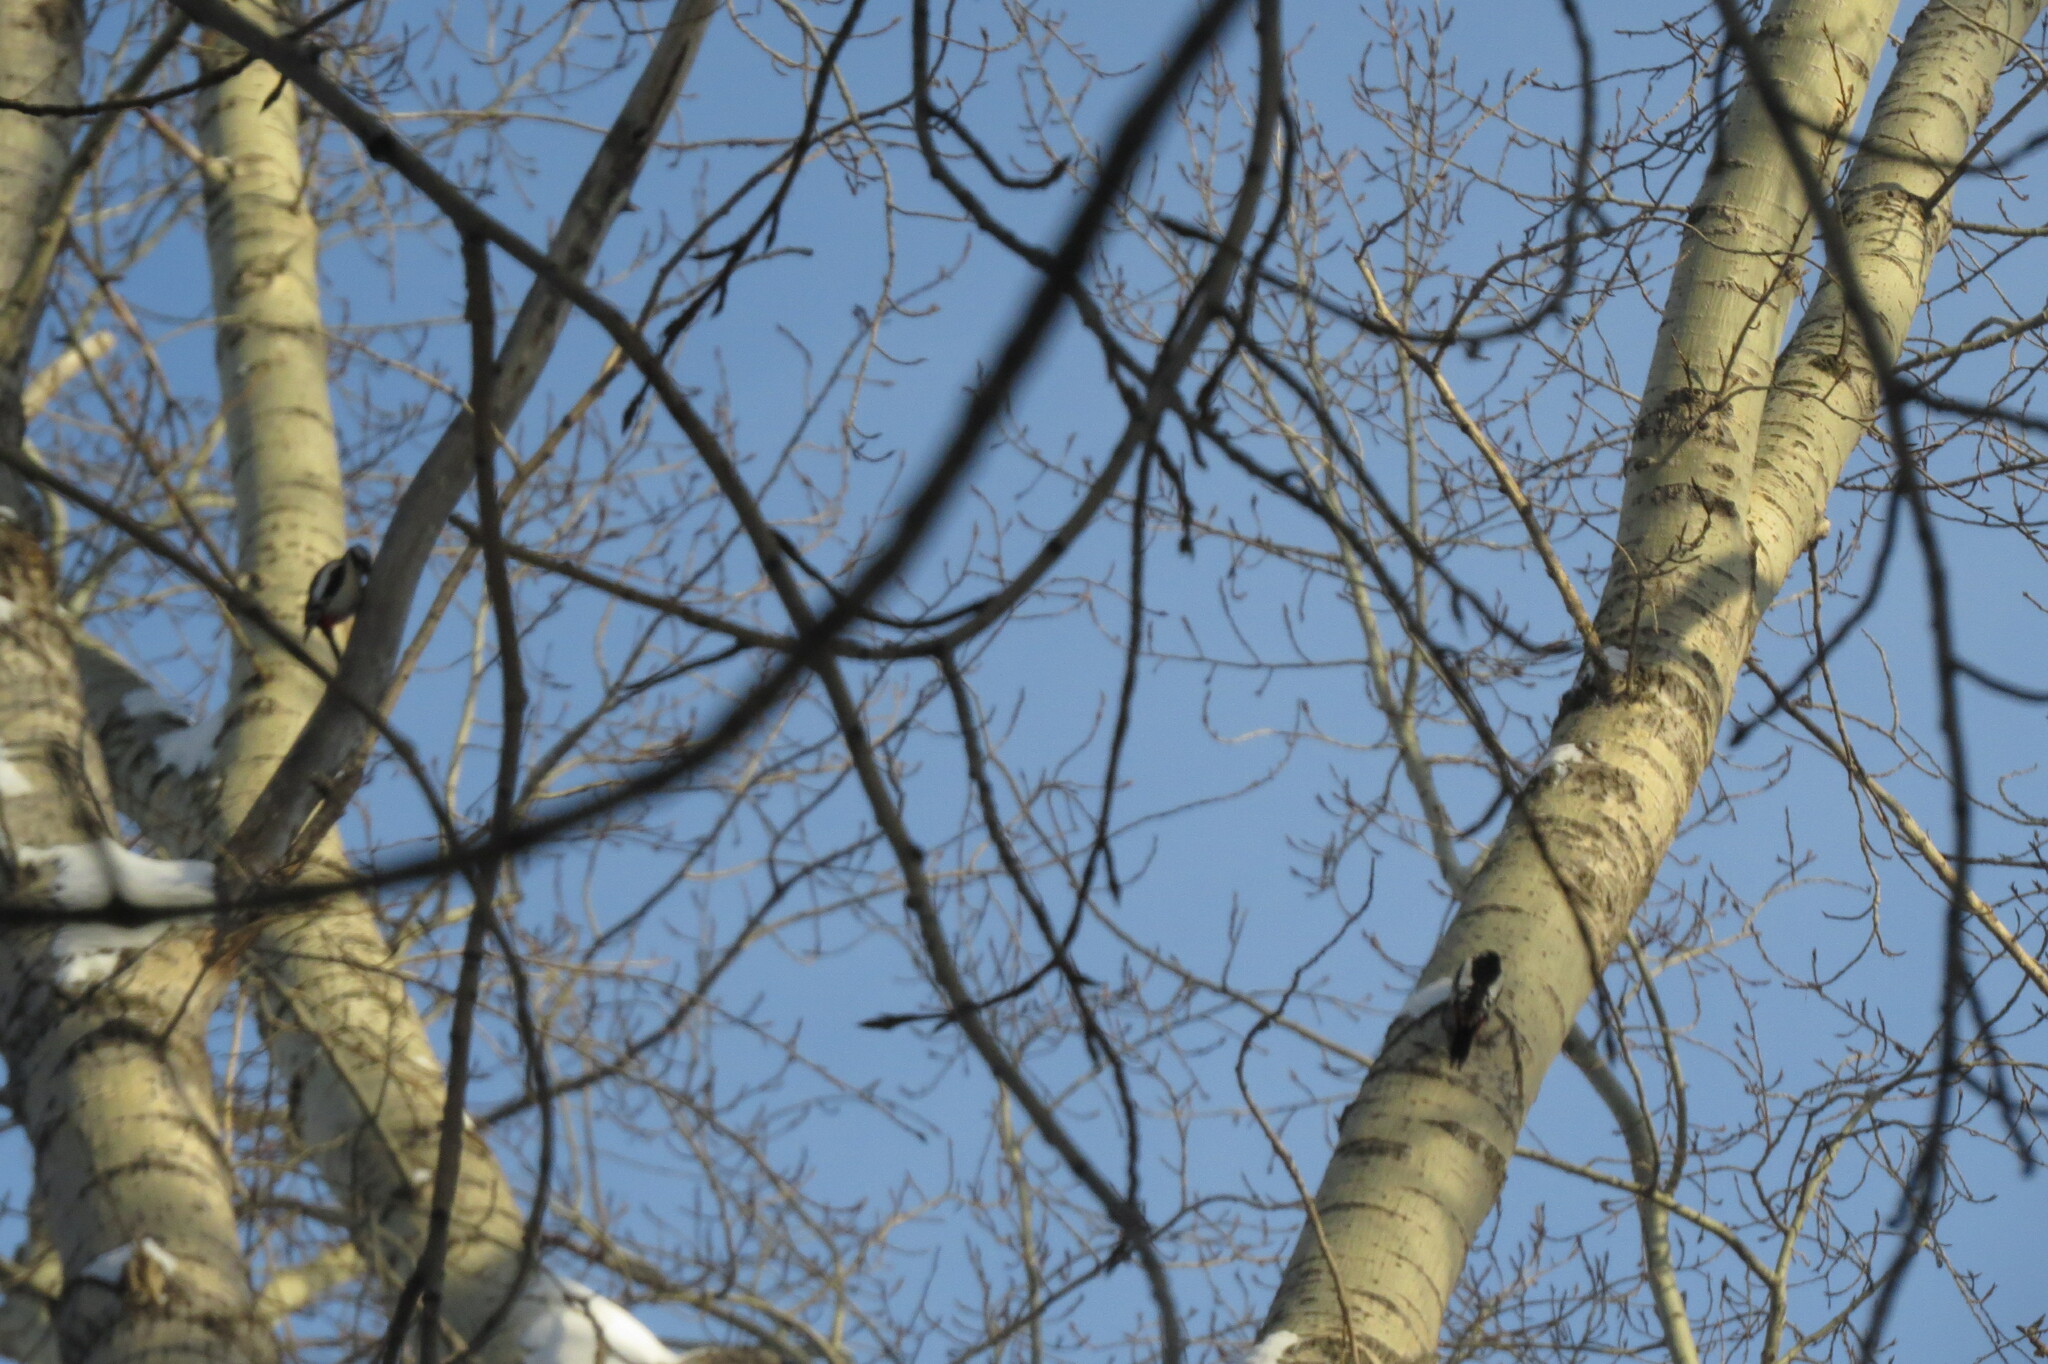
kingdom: Animalia
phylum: Chordata
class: Aves
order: Piciformes
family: Picidae
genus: Dendrocopos
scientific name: Dendrocopos major
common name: Great spotted woodpecker
